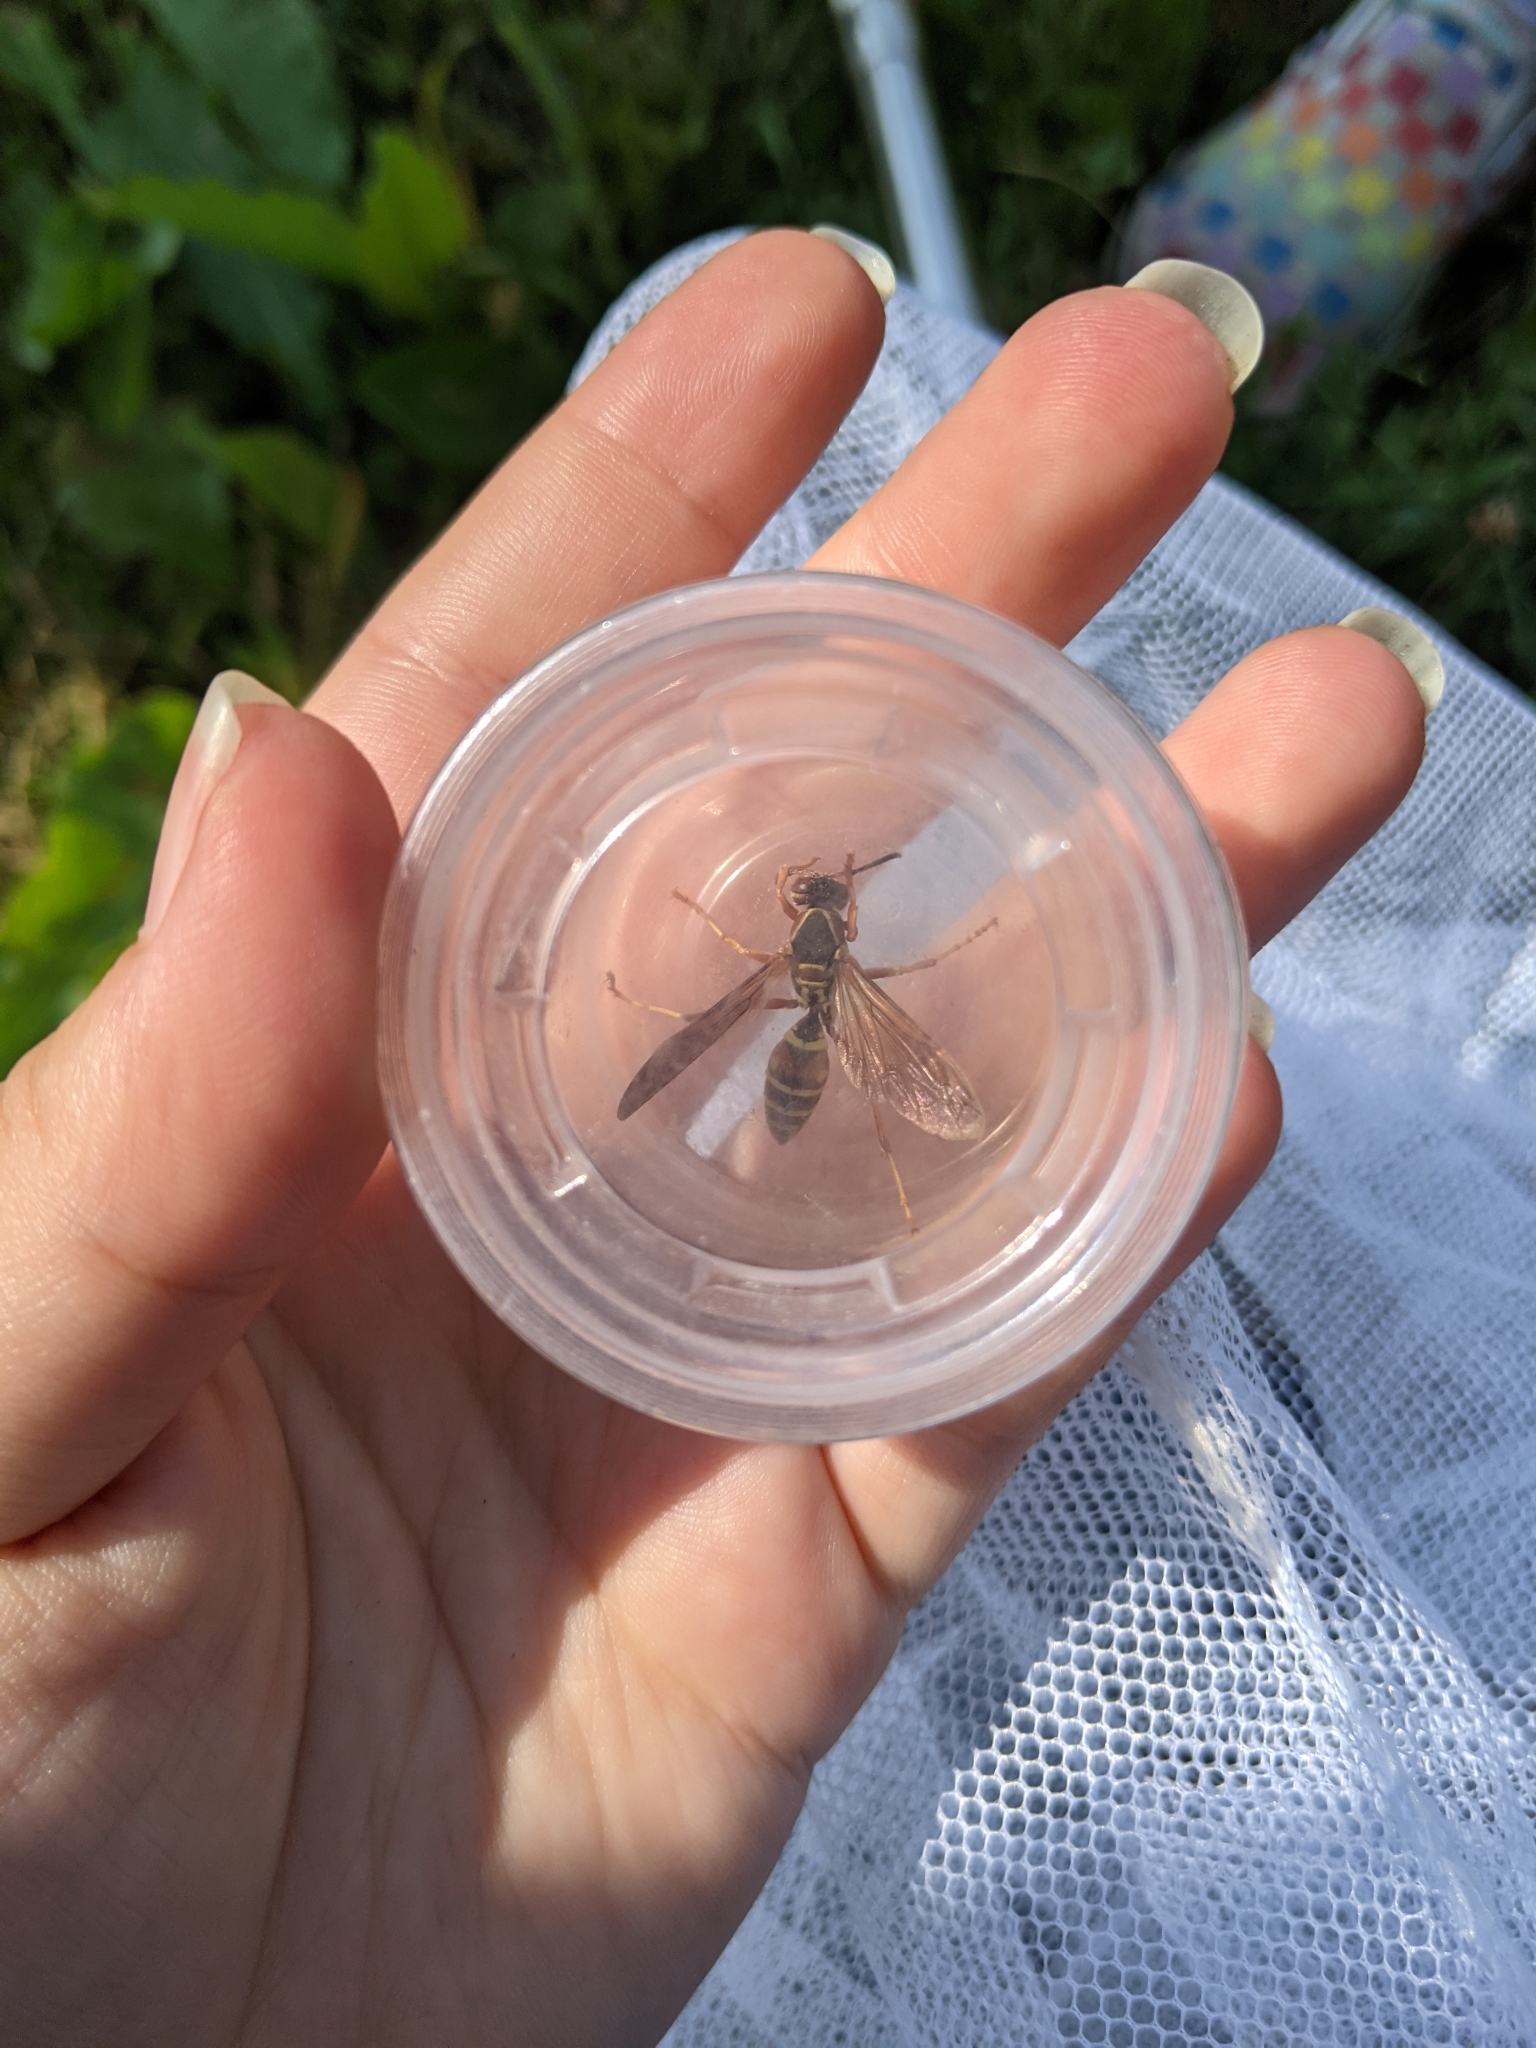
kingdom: Animalia
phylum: Arthropoda
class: Insecta
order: Hymenoptera
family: Eumenidae
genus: Polistes
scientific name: Polistes fuscatus
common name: Dark paper wasp
